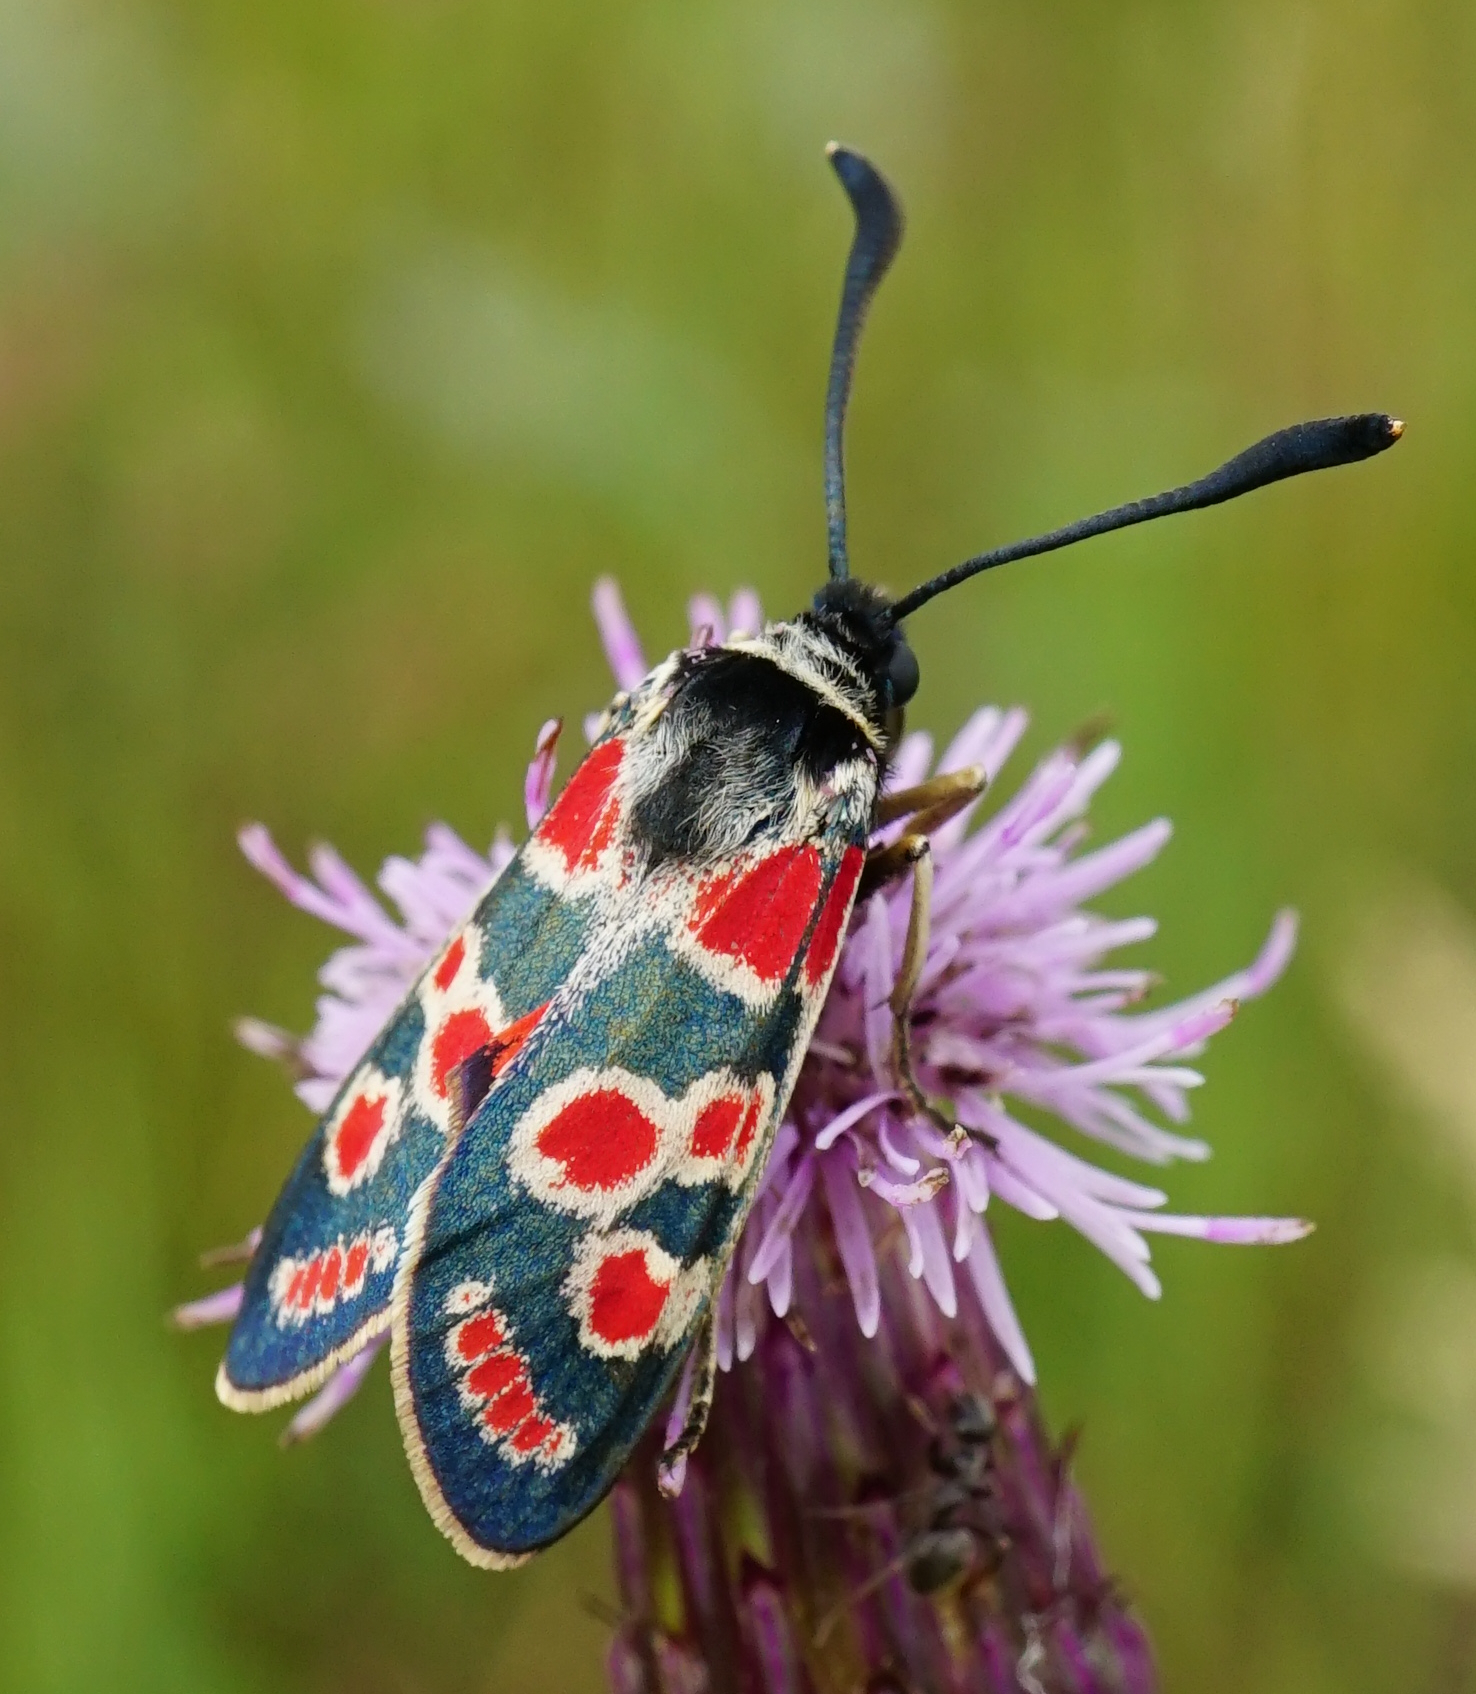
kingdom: Animalia
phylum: Arthropoda
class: Insecta
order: Lepidoptera
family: Zygaenidae
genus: Zygaena
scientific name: Zygaena carniolica
